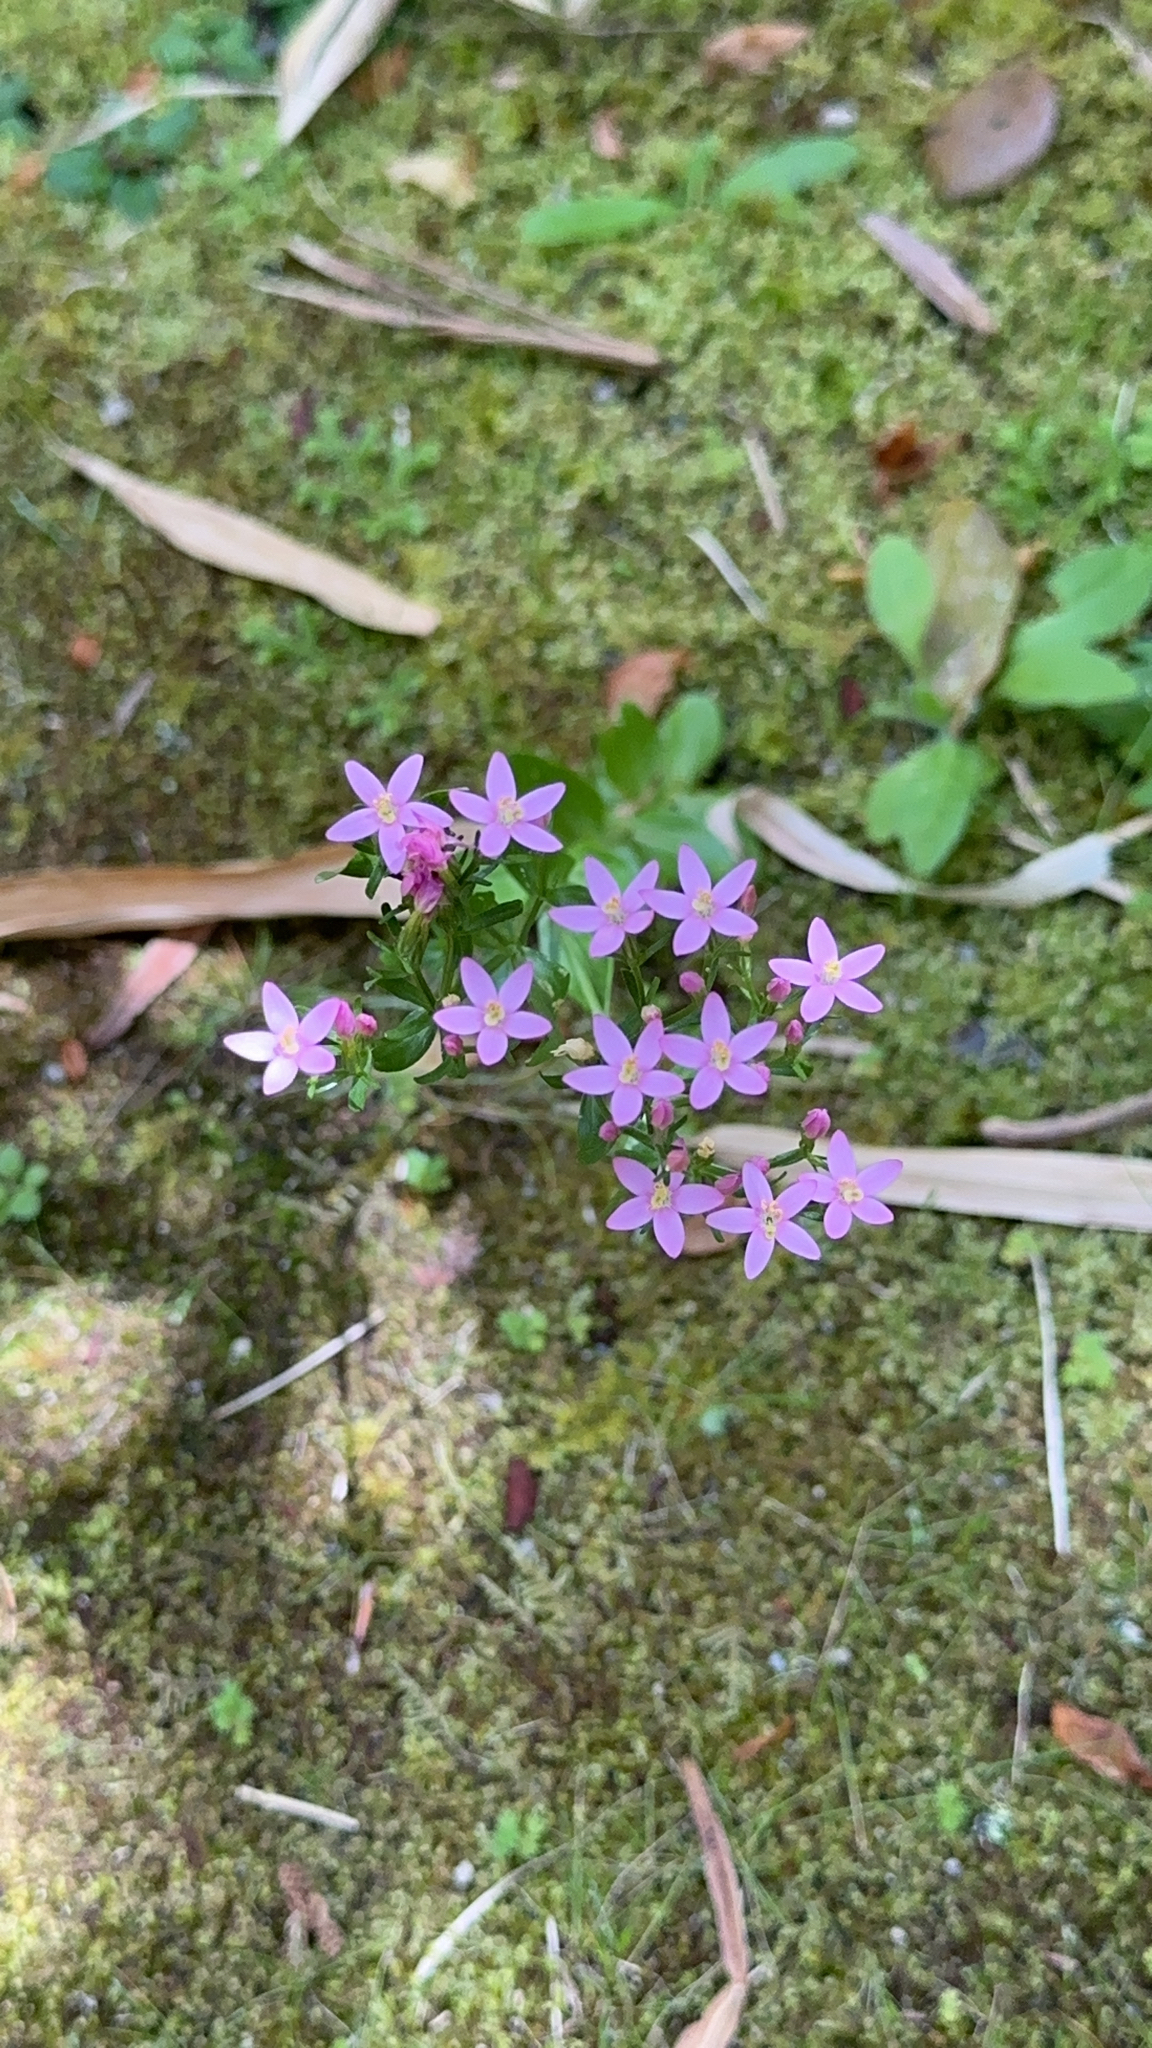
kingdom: Plantae
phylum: Tracheophyta
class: Magnoliopsida
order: Gentianales
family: Gentianaceae
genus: Centaurium
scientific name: Centaurium erythraea
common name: Common centaury
